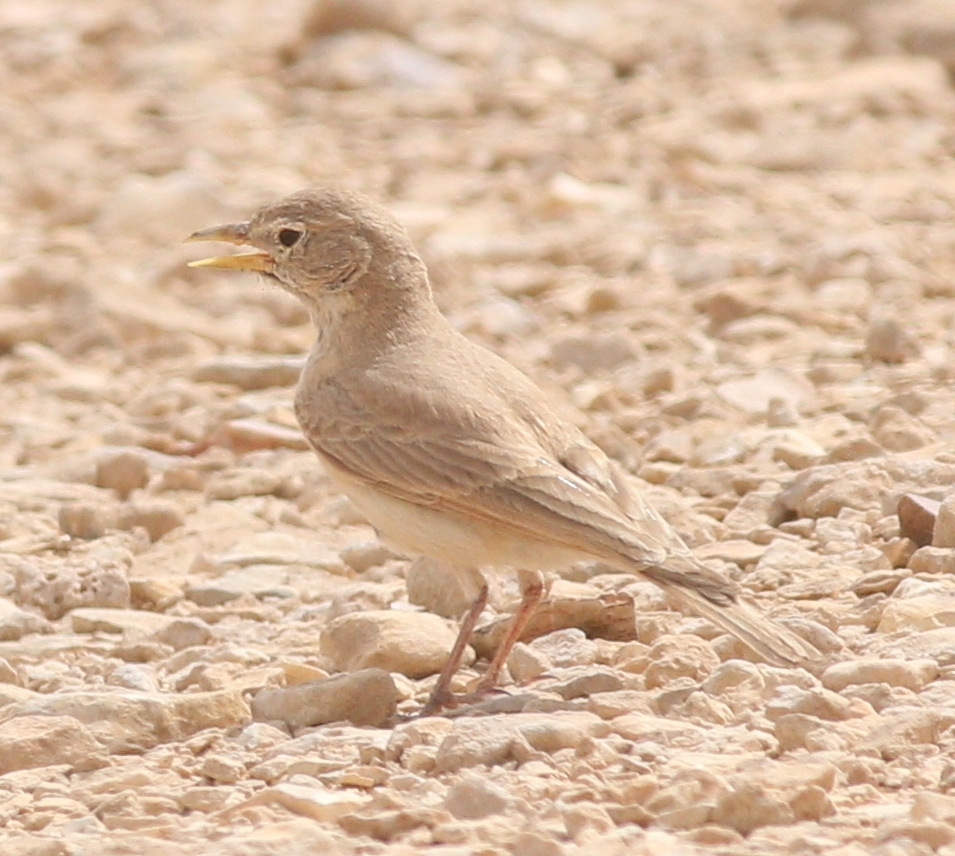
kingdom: Animalia
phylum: Chordata
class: Aves
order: Passeriformes
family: Alaudidae
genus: Ammomanes
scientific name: Ammomanes deserti
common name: Desert lark
